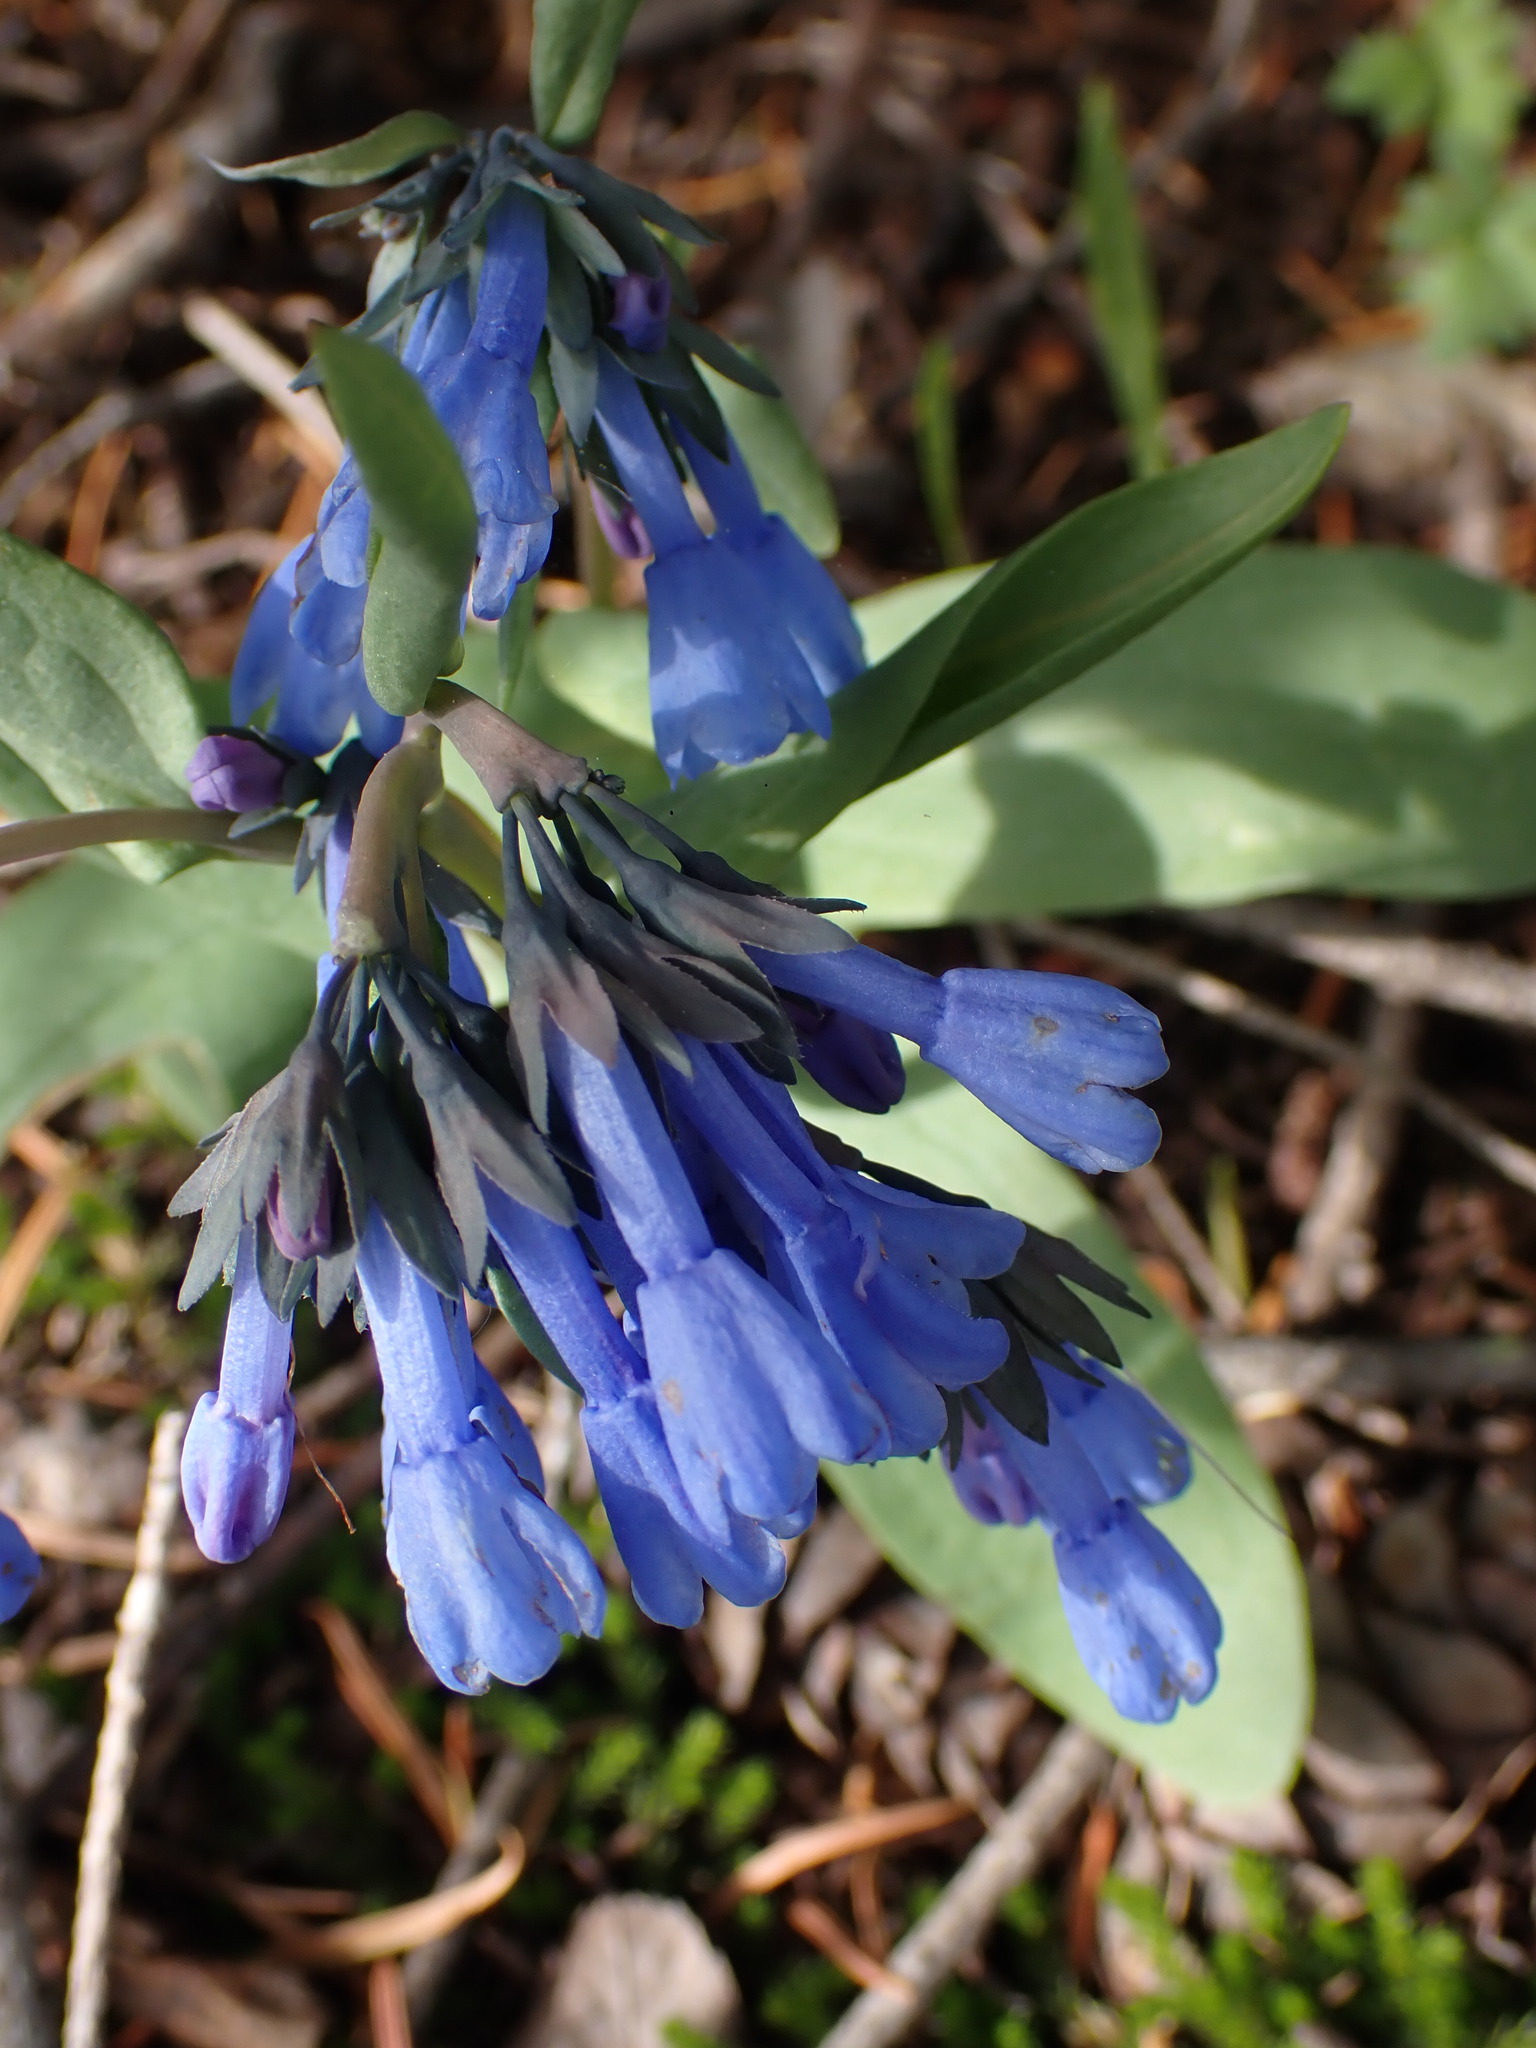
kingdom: Plantae
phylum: Tracheophyta
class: Magnoliopsida
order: Boraginales
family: Boraginaceae
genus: Mertensia
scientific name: Mertensia longiflora
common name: Large-flowered bluebells
